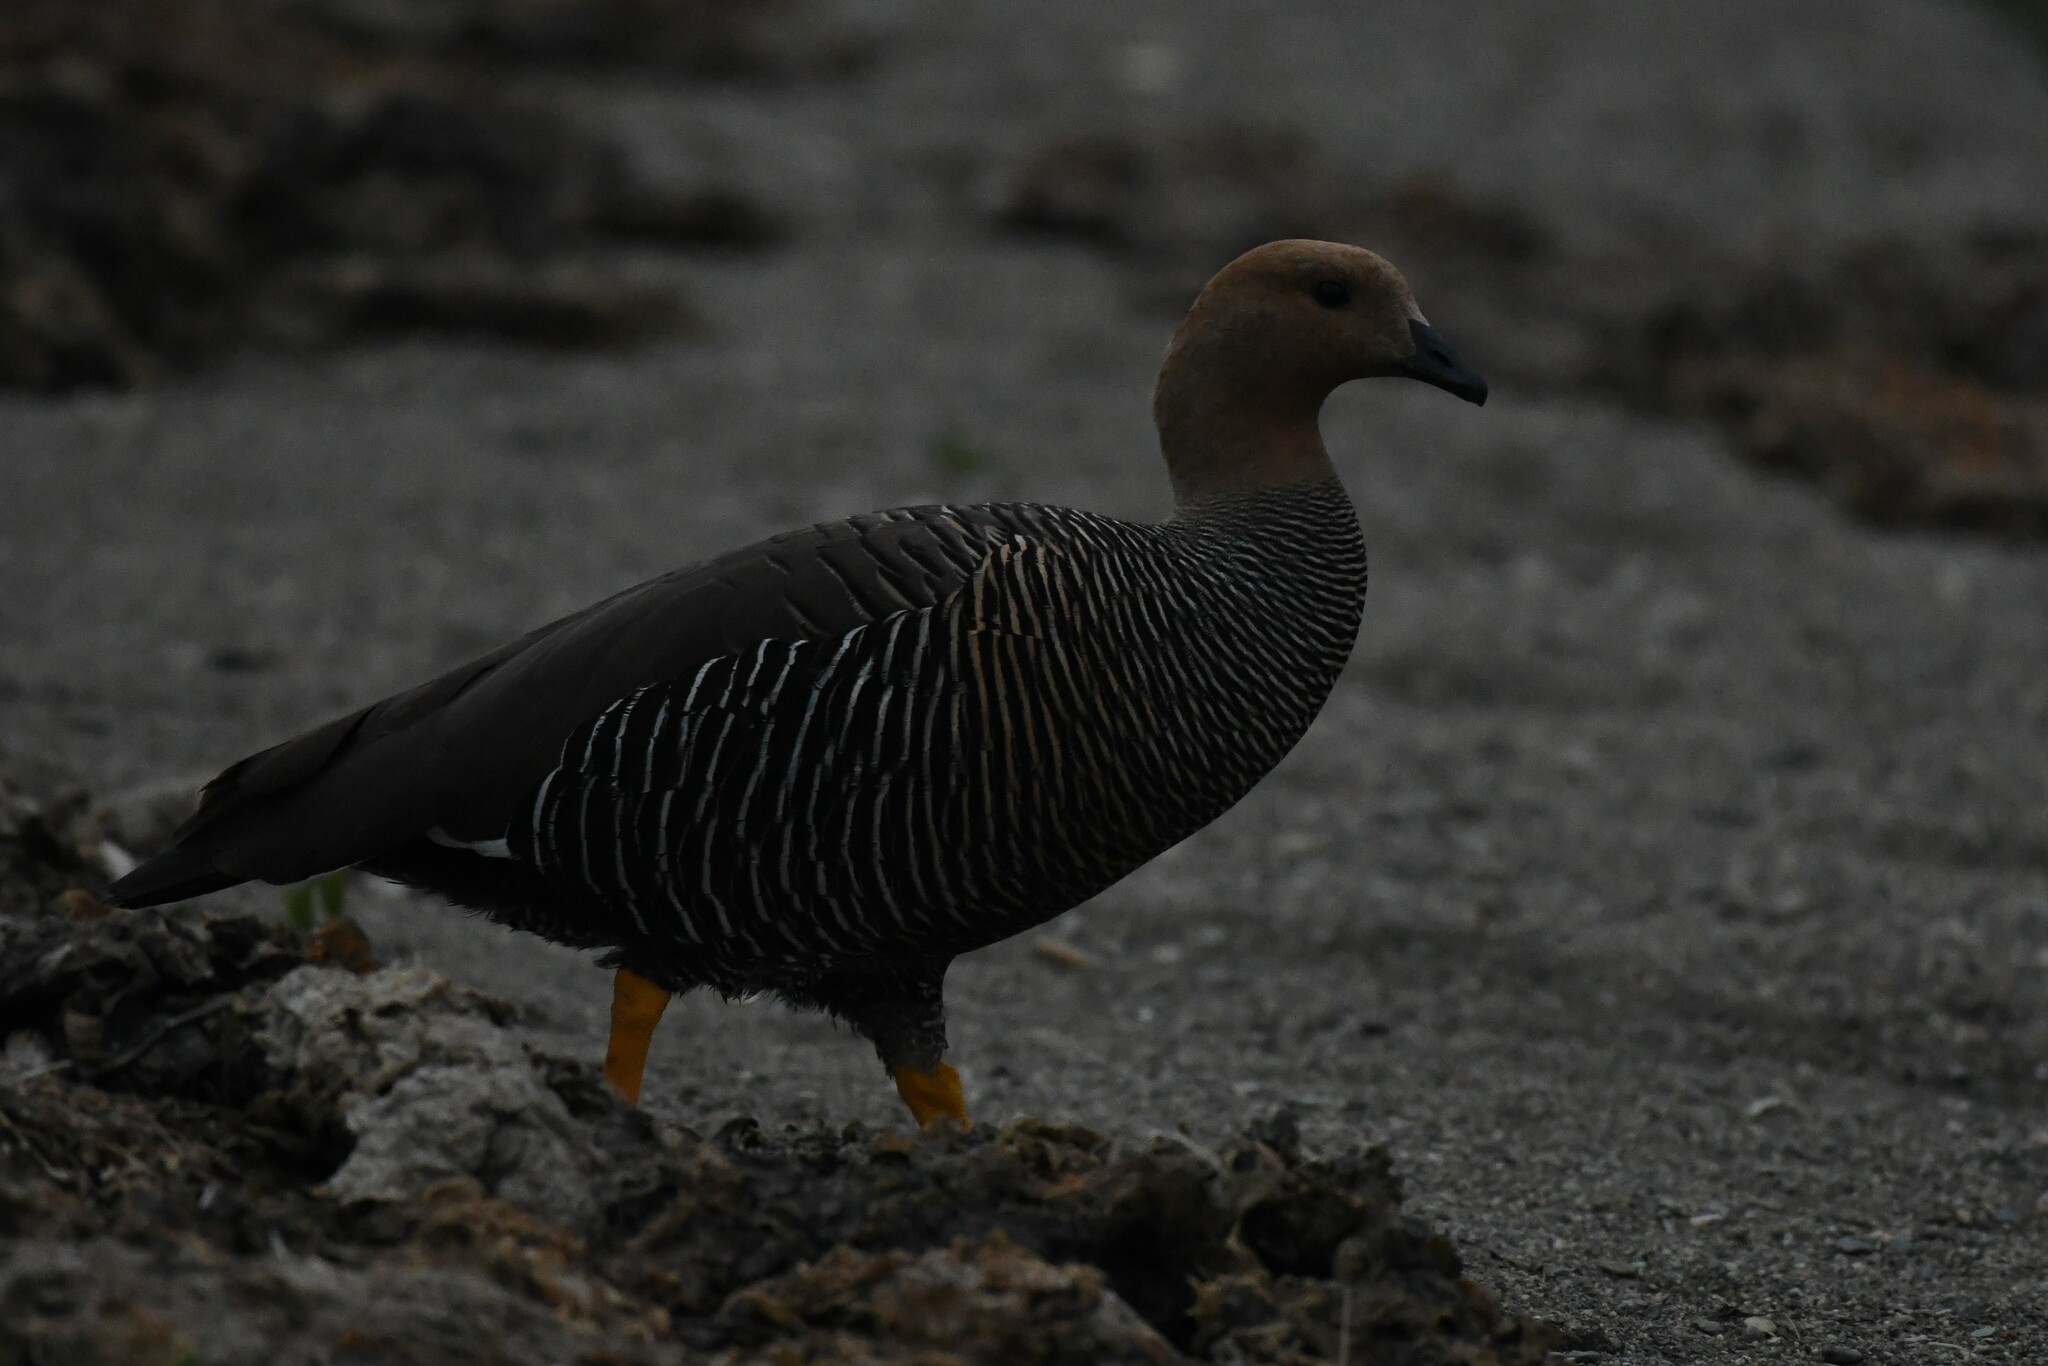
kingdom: Animalia
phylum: Chordata
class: Aves
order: Anseriformes
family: Anatidae
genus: Chloephaga
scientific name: Chloephaga picta
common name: Upland goose
